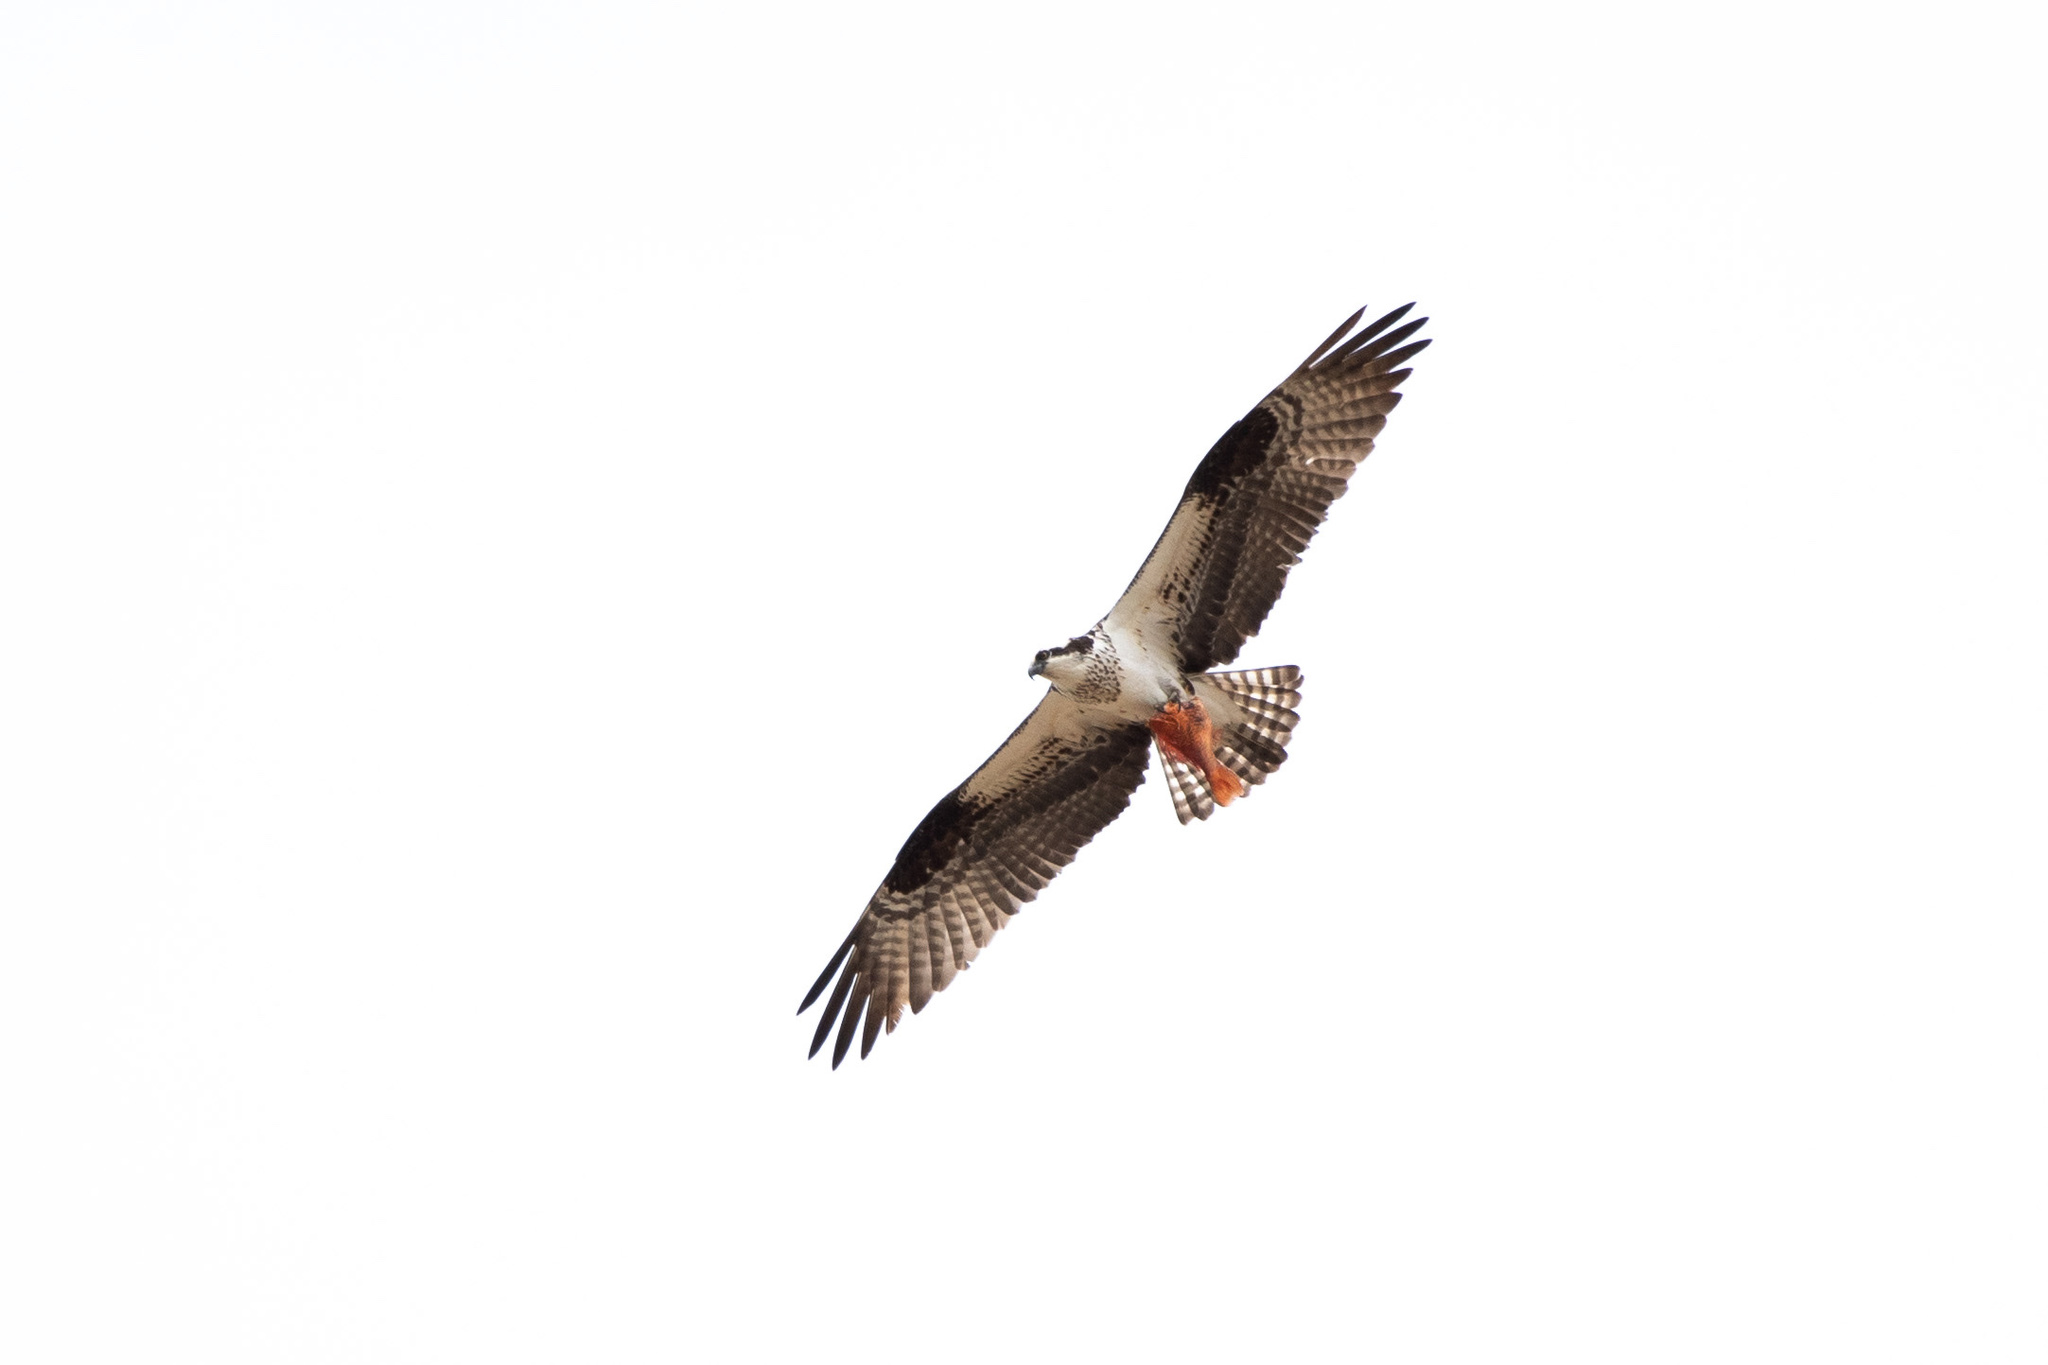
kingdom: Animalia
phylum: Chordata
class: Aves
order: Accipitriformes
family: Pandionidae
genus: Pandion
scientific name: Pandion haliaetus
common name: Osprey
